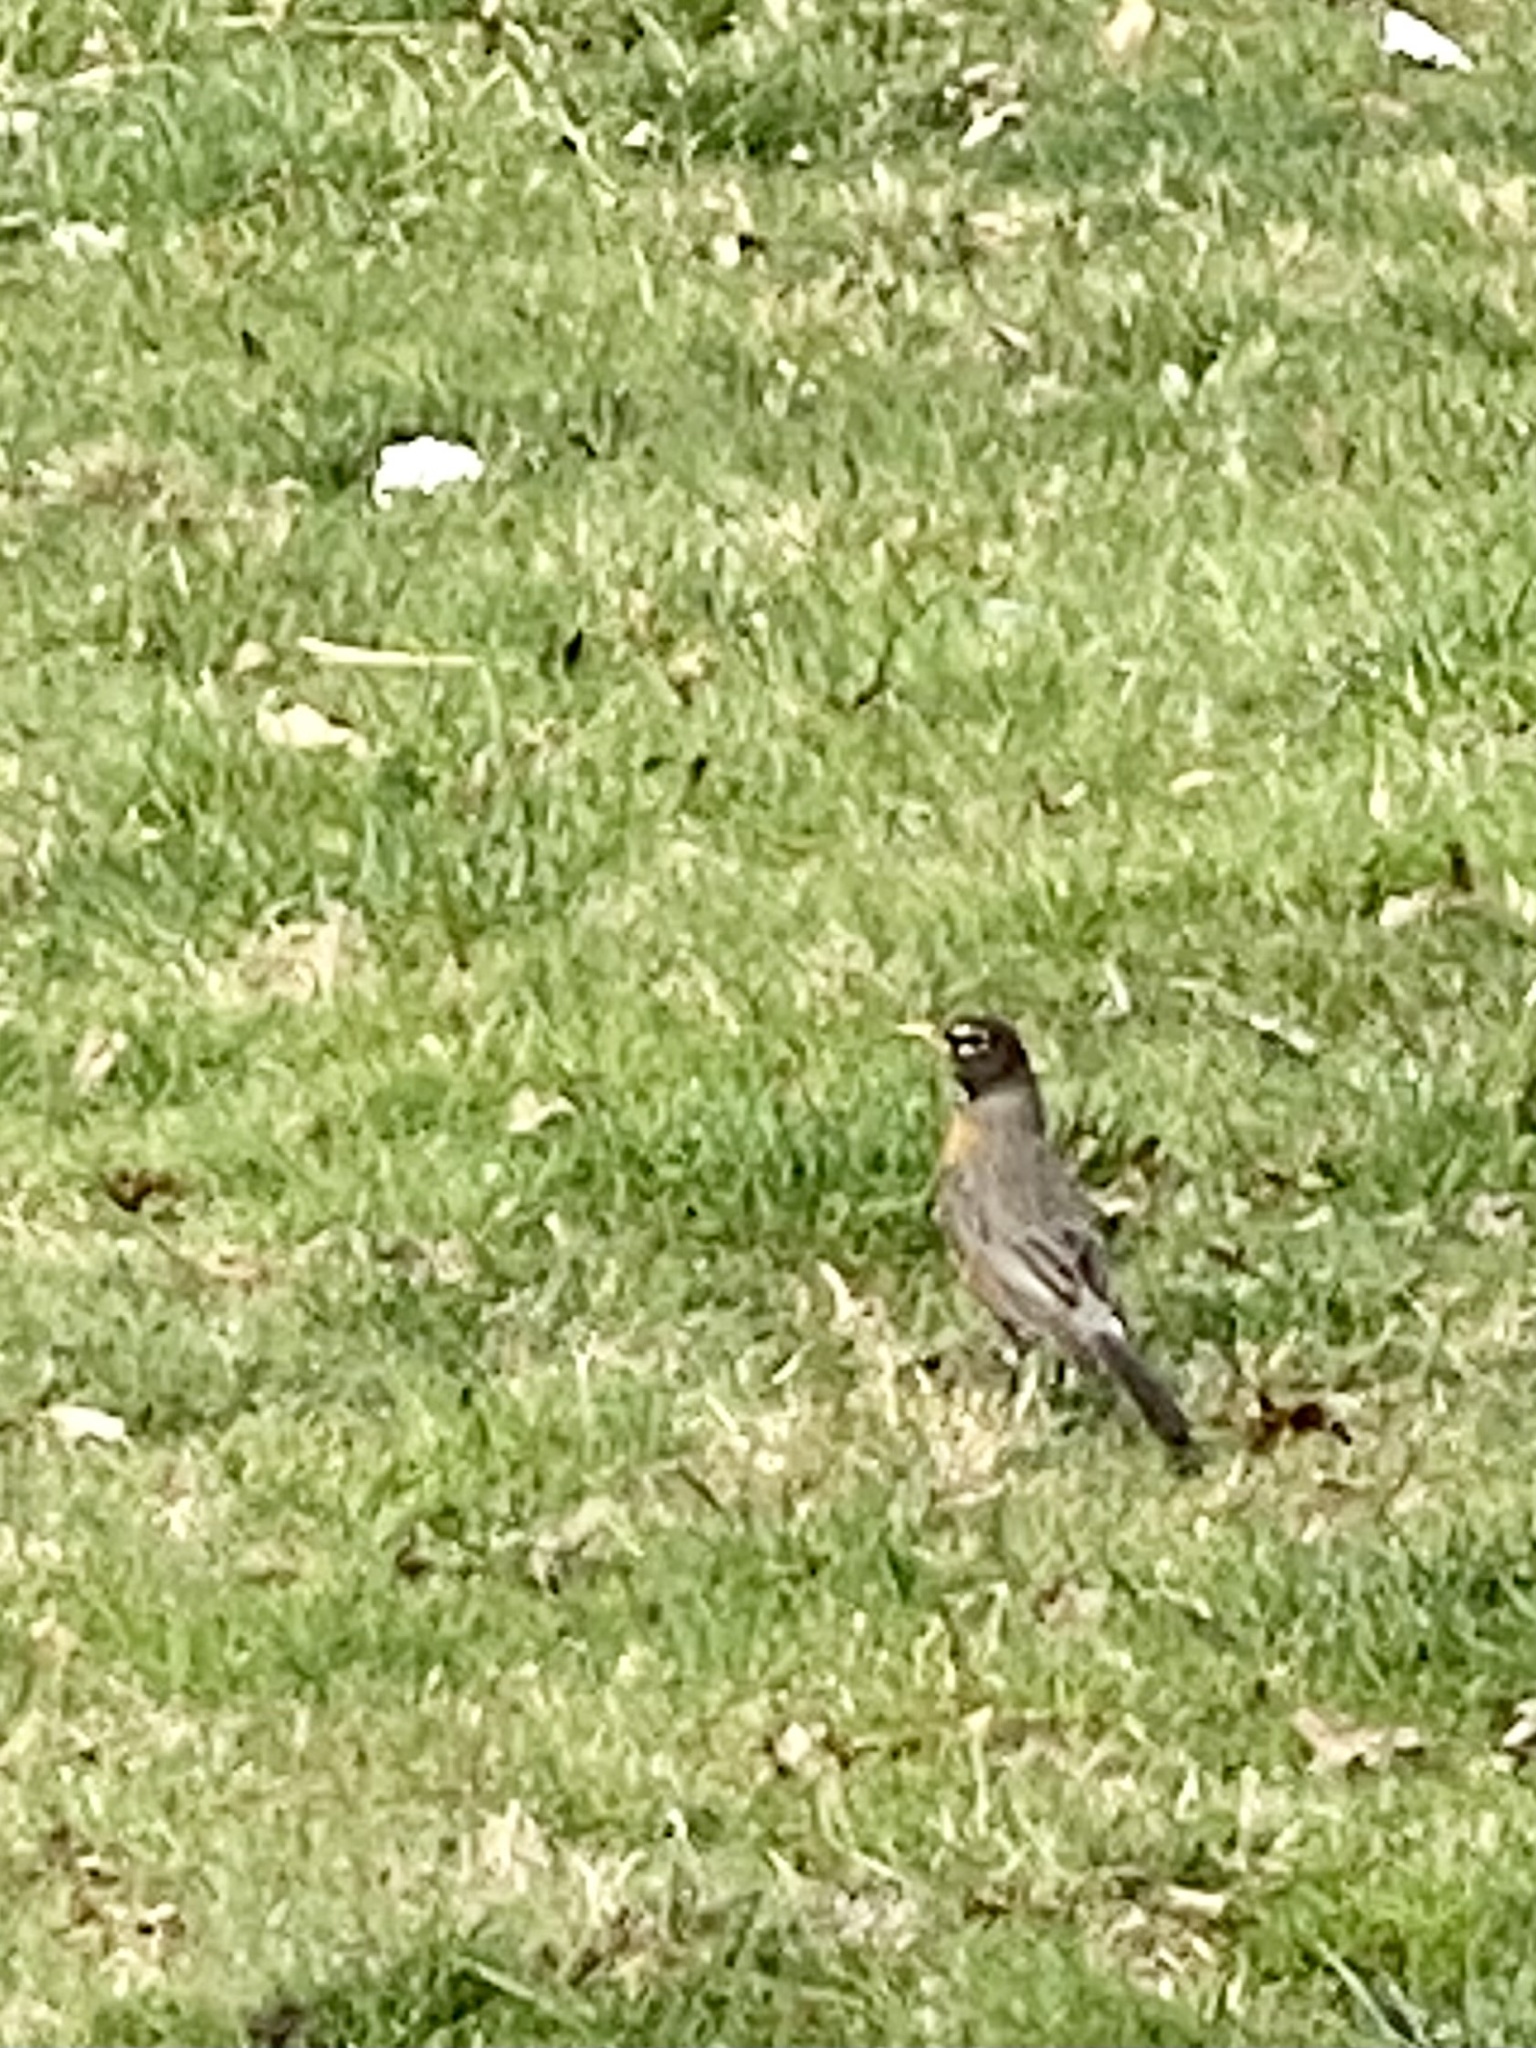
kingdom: Animalia
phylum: Chordata
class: Aves
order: Passeriformes
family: Turdidae
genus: Turdus
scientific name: Turdus migratorius
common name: American robin
